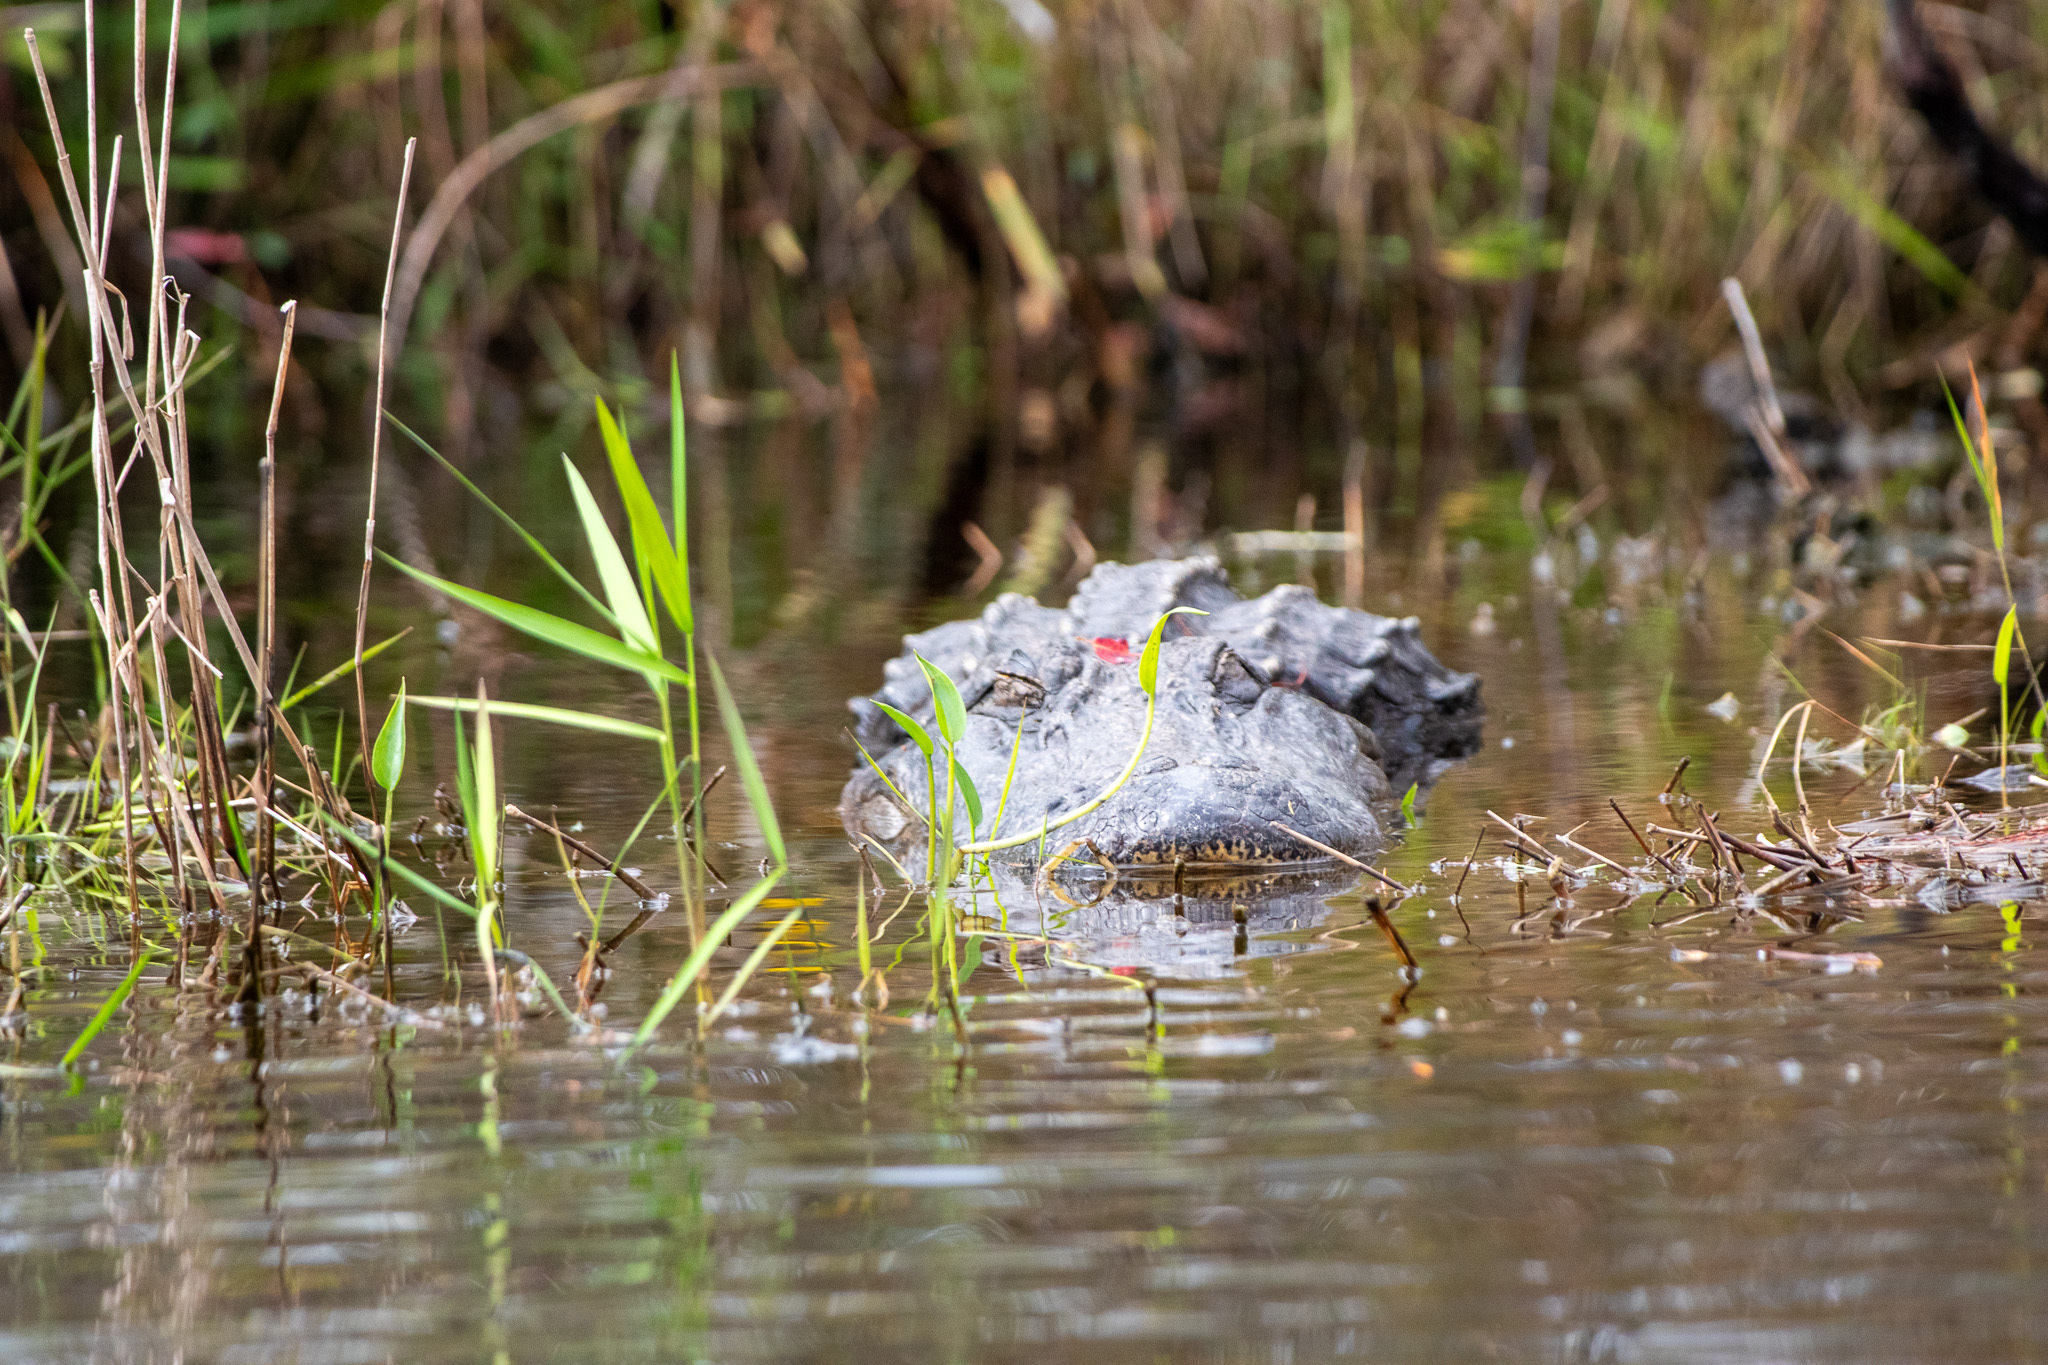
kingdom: Animalia
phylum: Chordata
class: Crocodylia
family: Alligatoridae
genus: Alligator
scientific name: Alligator mississippiensis
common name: American alligator
